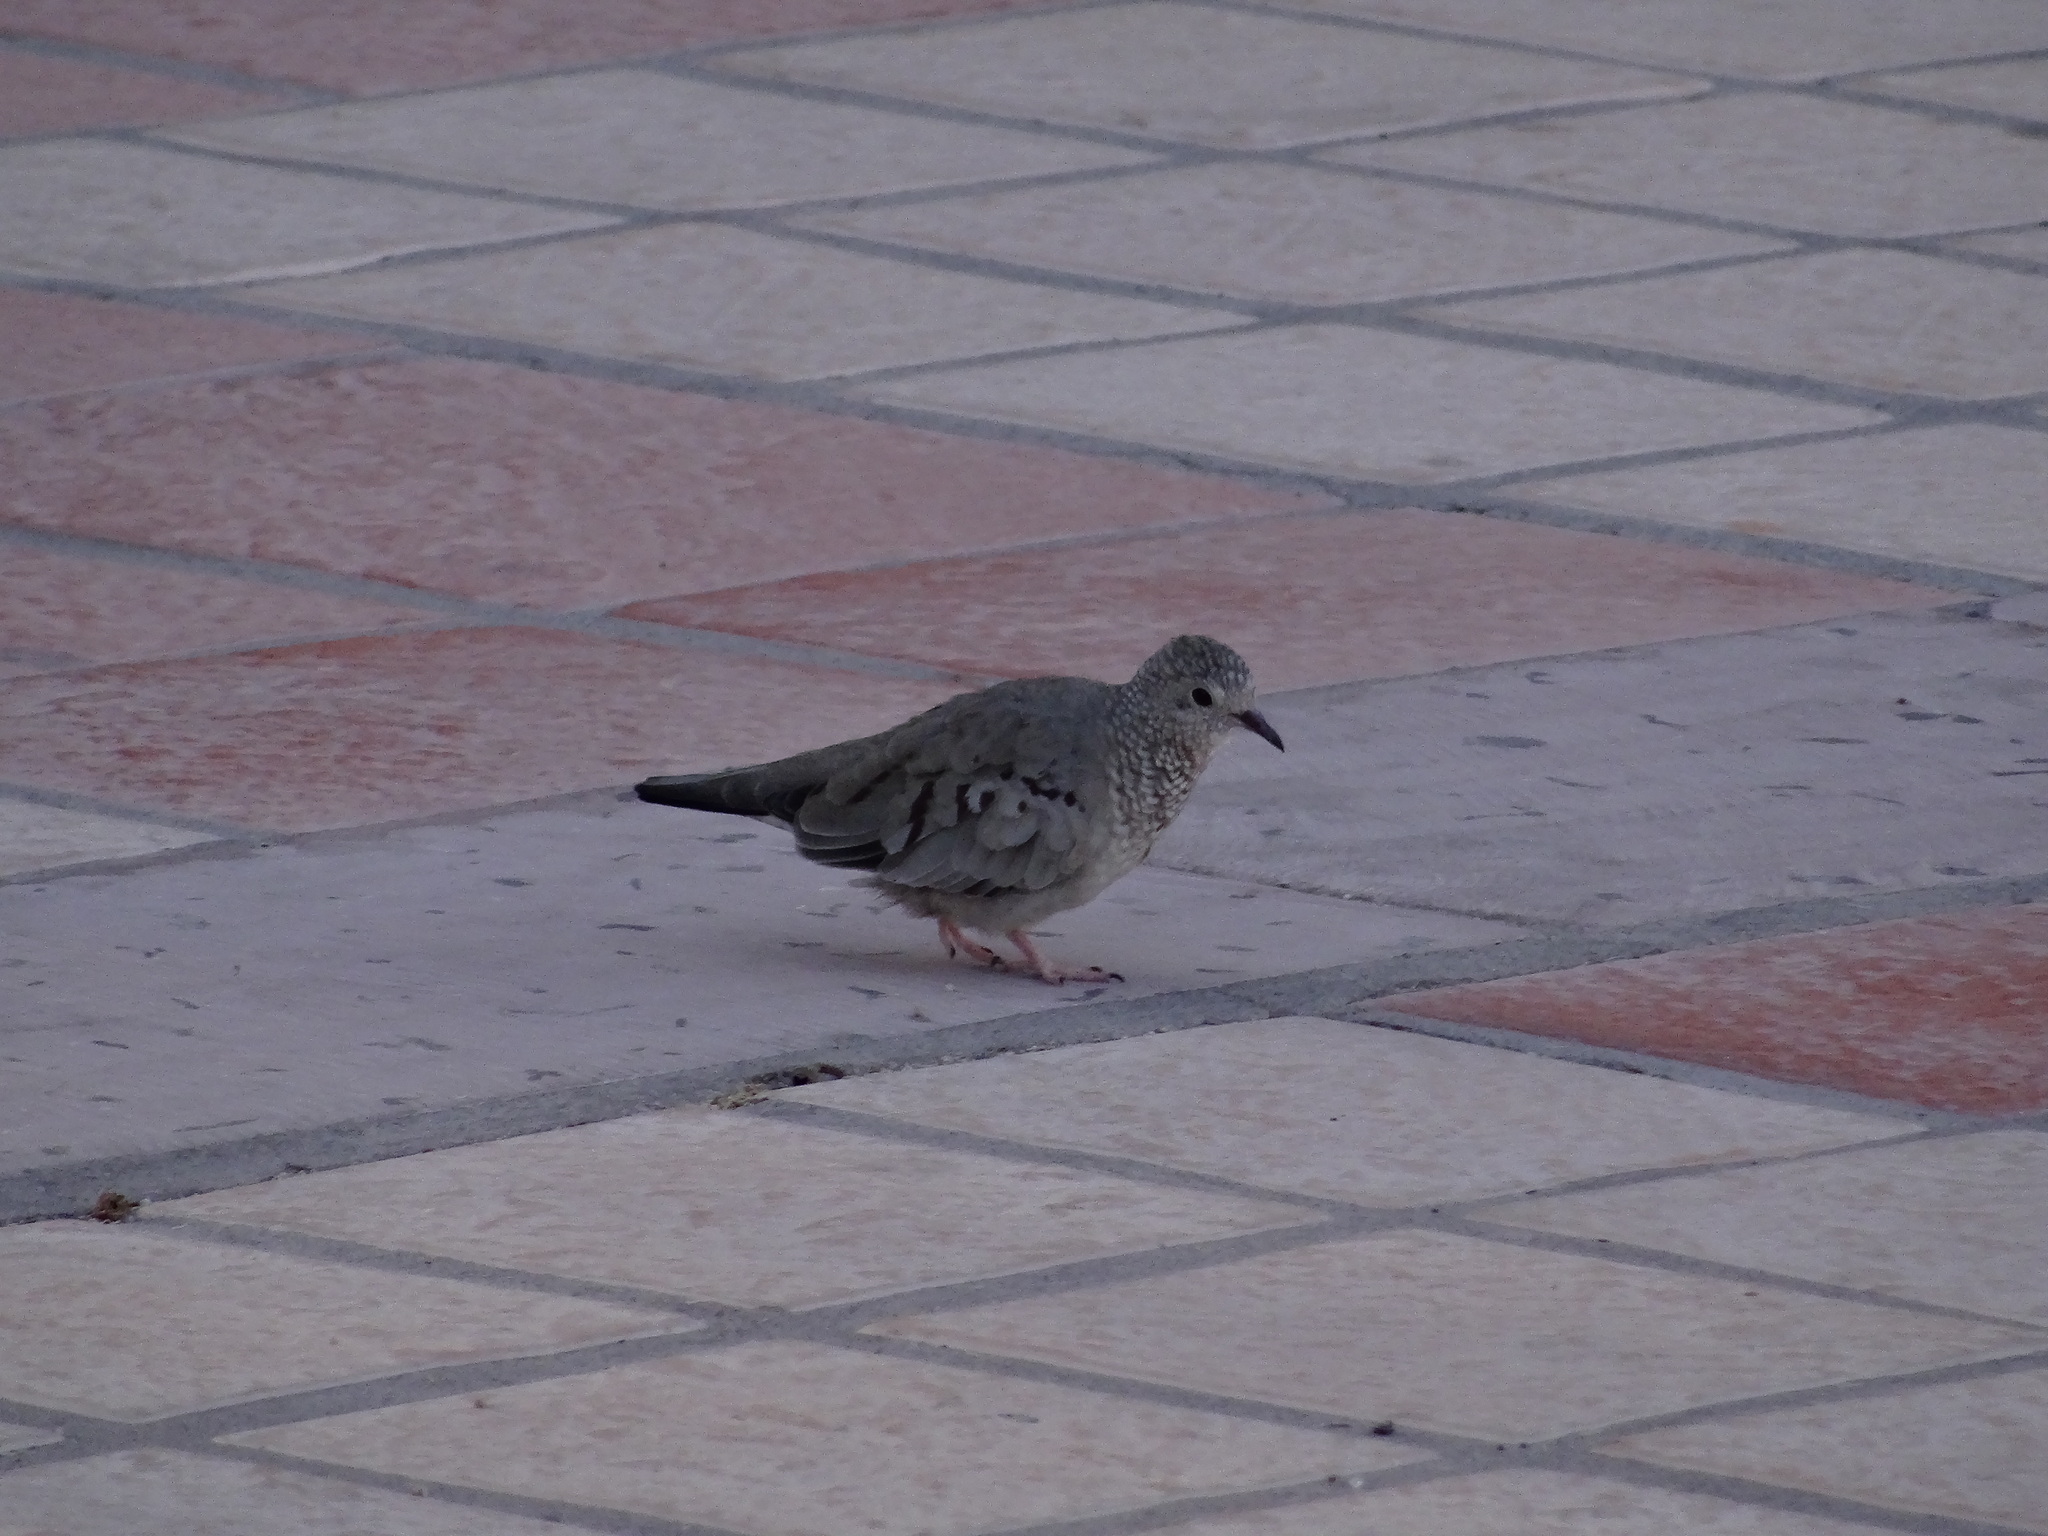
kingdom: Animalia
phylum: Chordata
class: Aves
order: Columbiformes
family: Columbidae
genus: Columbina
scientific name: Columbina passerina
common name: Common ground-dove
